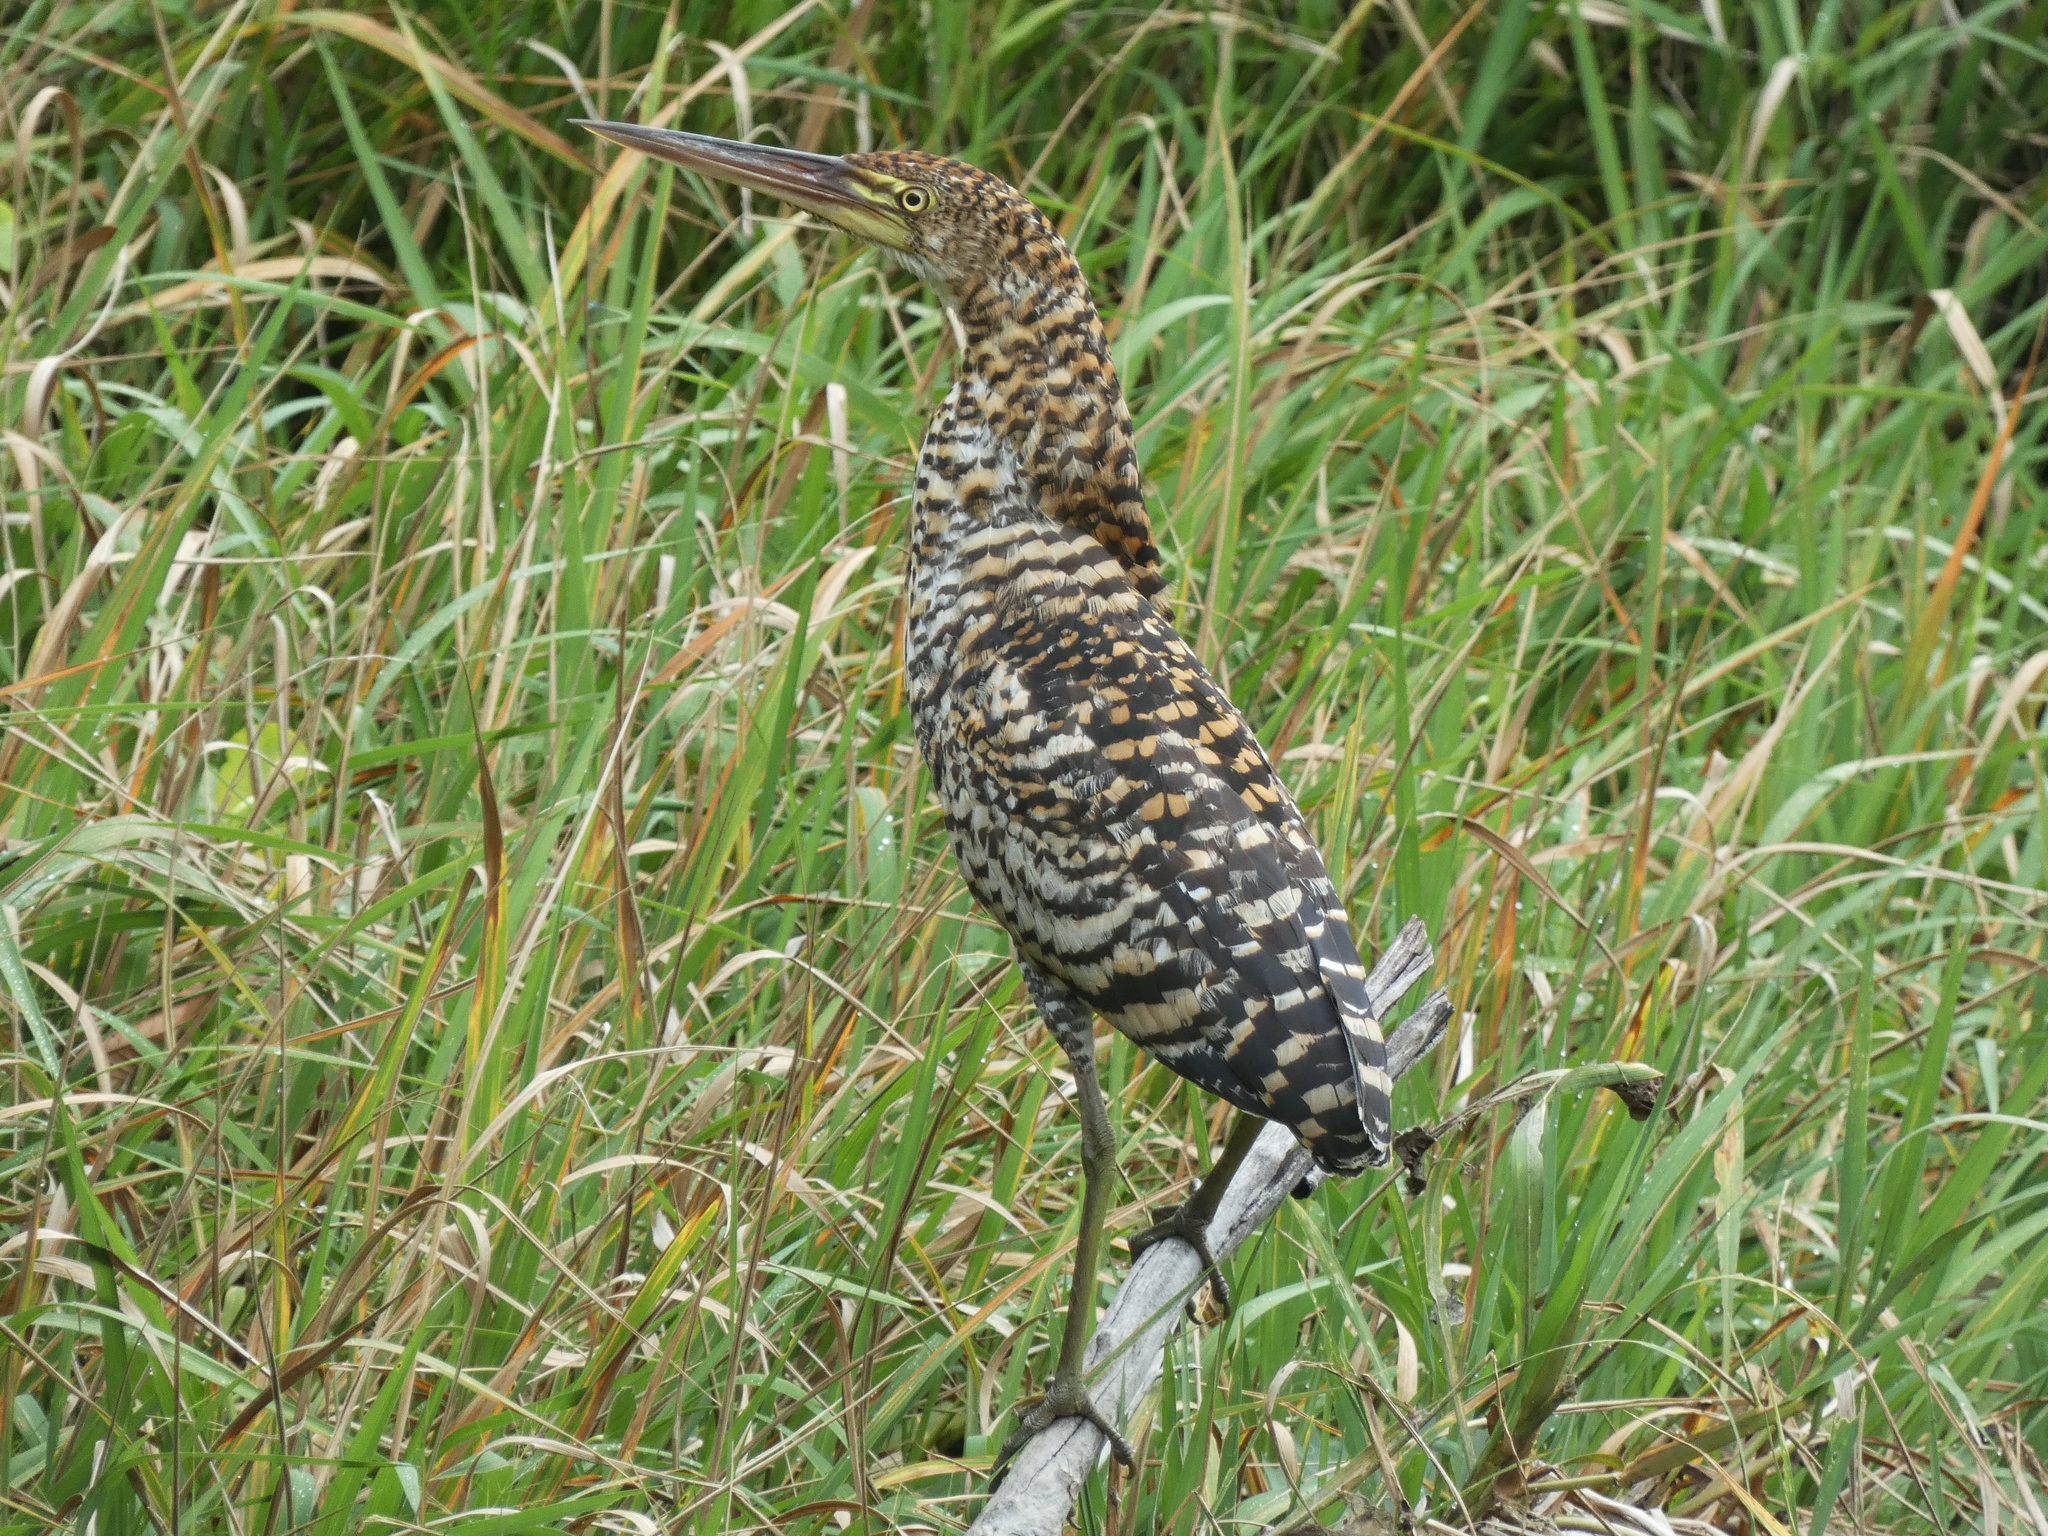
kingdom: Animalia
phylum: Chordata
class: Aves
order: Pelecaniformes
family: Ardeidae
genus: Tigrisoma
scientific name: Tigrisoma lineatum
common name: Rufescent tiger-heron
